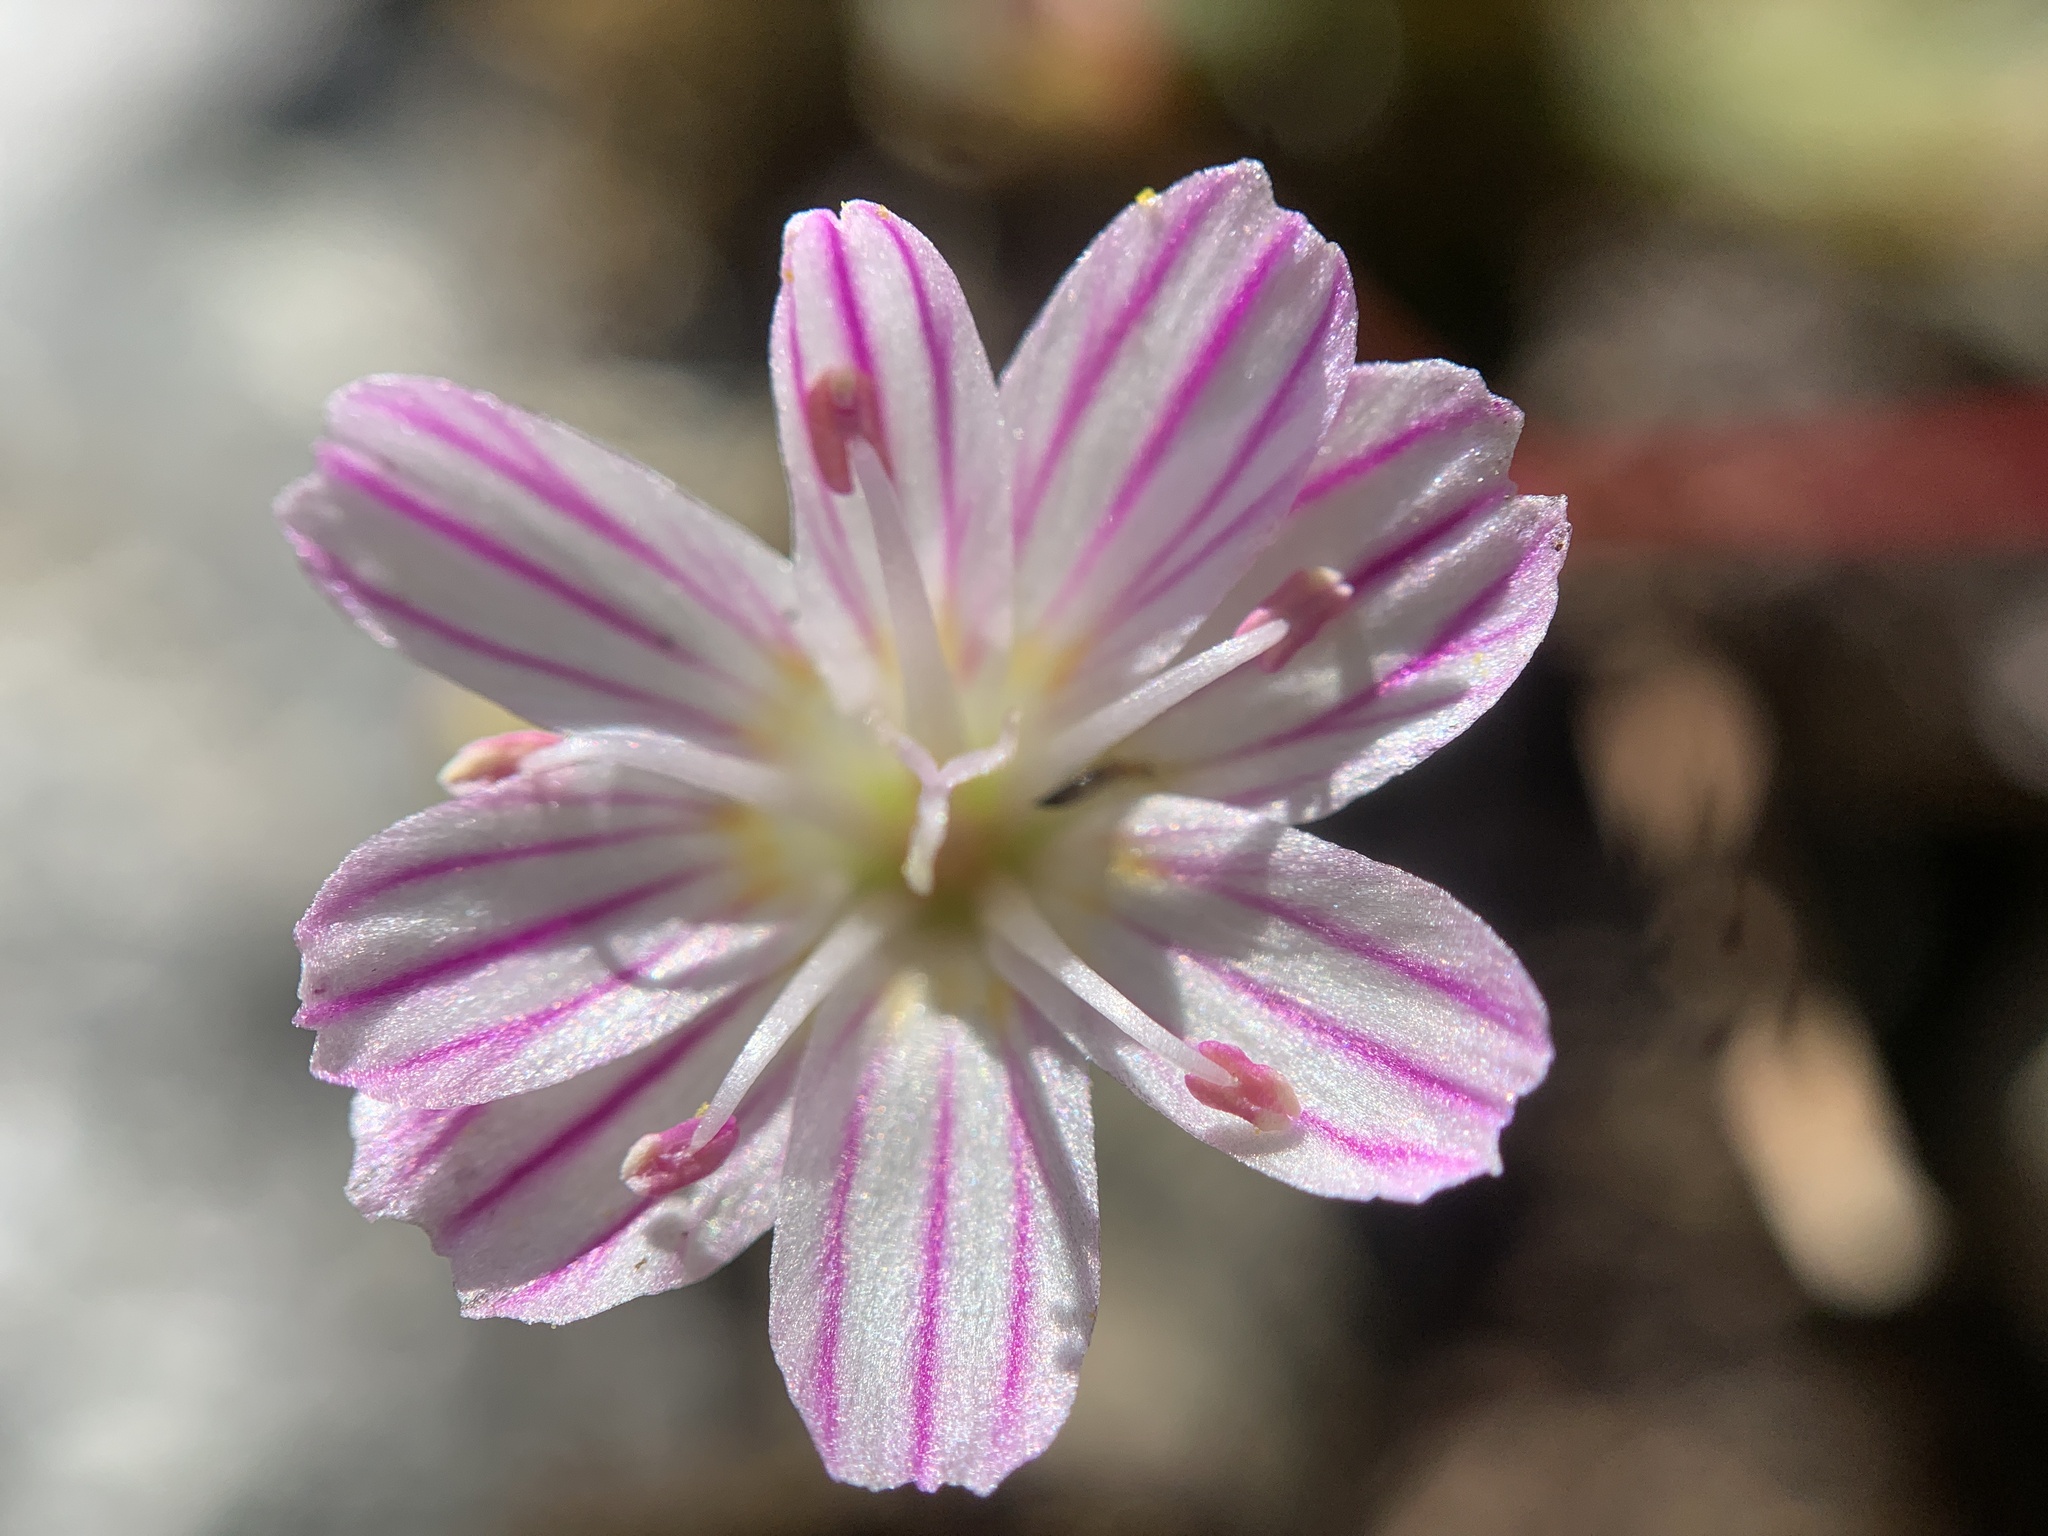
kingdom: Plantae
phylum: Tracheophyta
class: Magnoliopsida
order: Caryophyllales
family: Montiaceae
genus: Lewisia
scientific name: Lewisia columbiana
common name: Columbia lewisia
